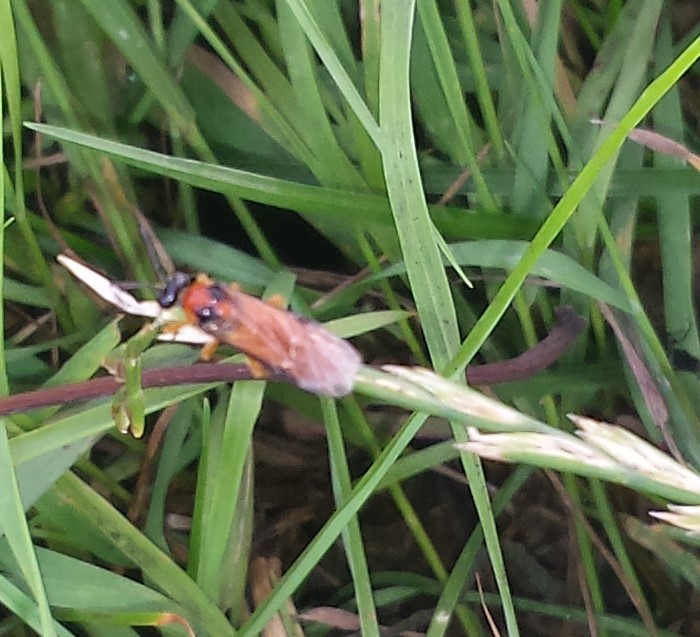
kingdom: Animalia
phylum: Arthropoda
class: Insecta
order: Hymenoptera
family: Tenthredinidae
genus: Athalia
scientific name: Athalia rosae
